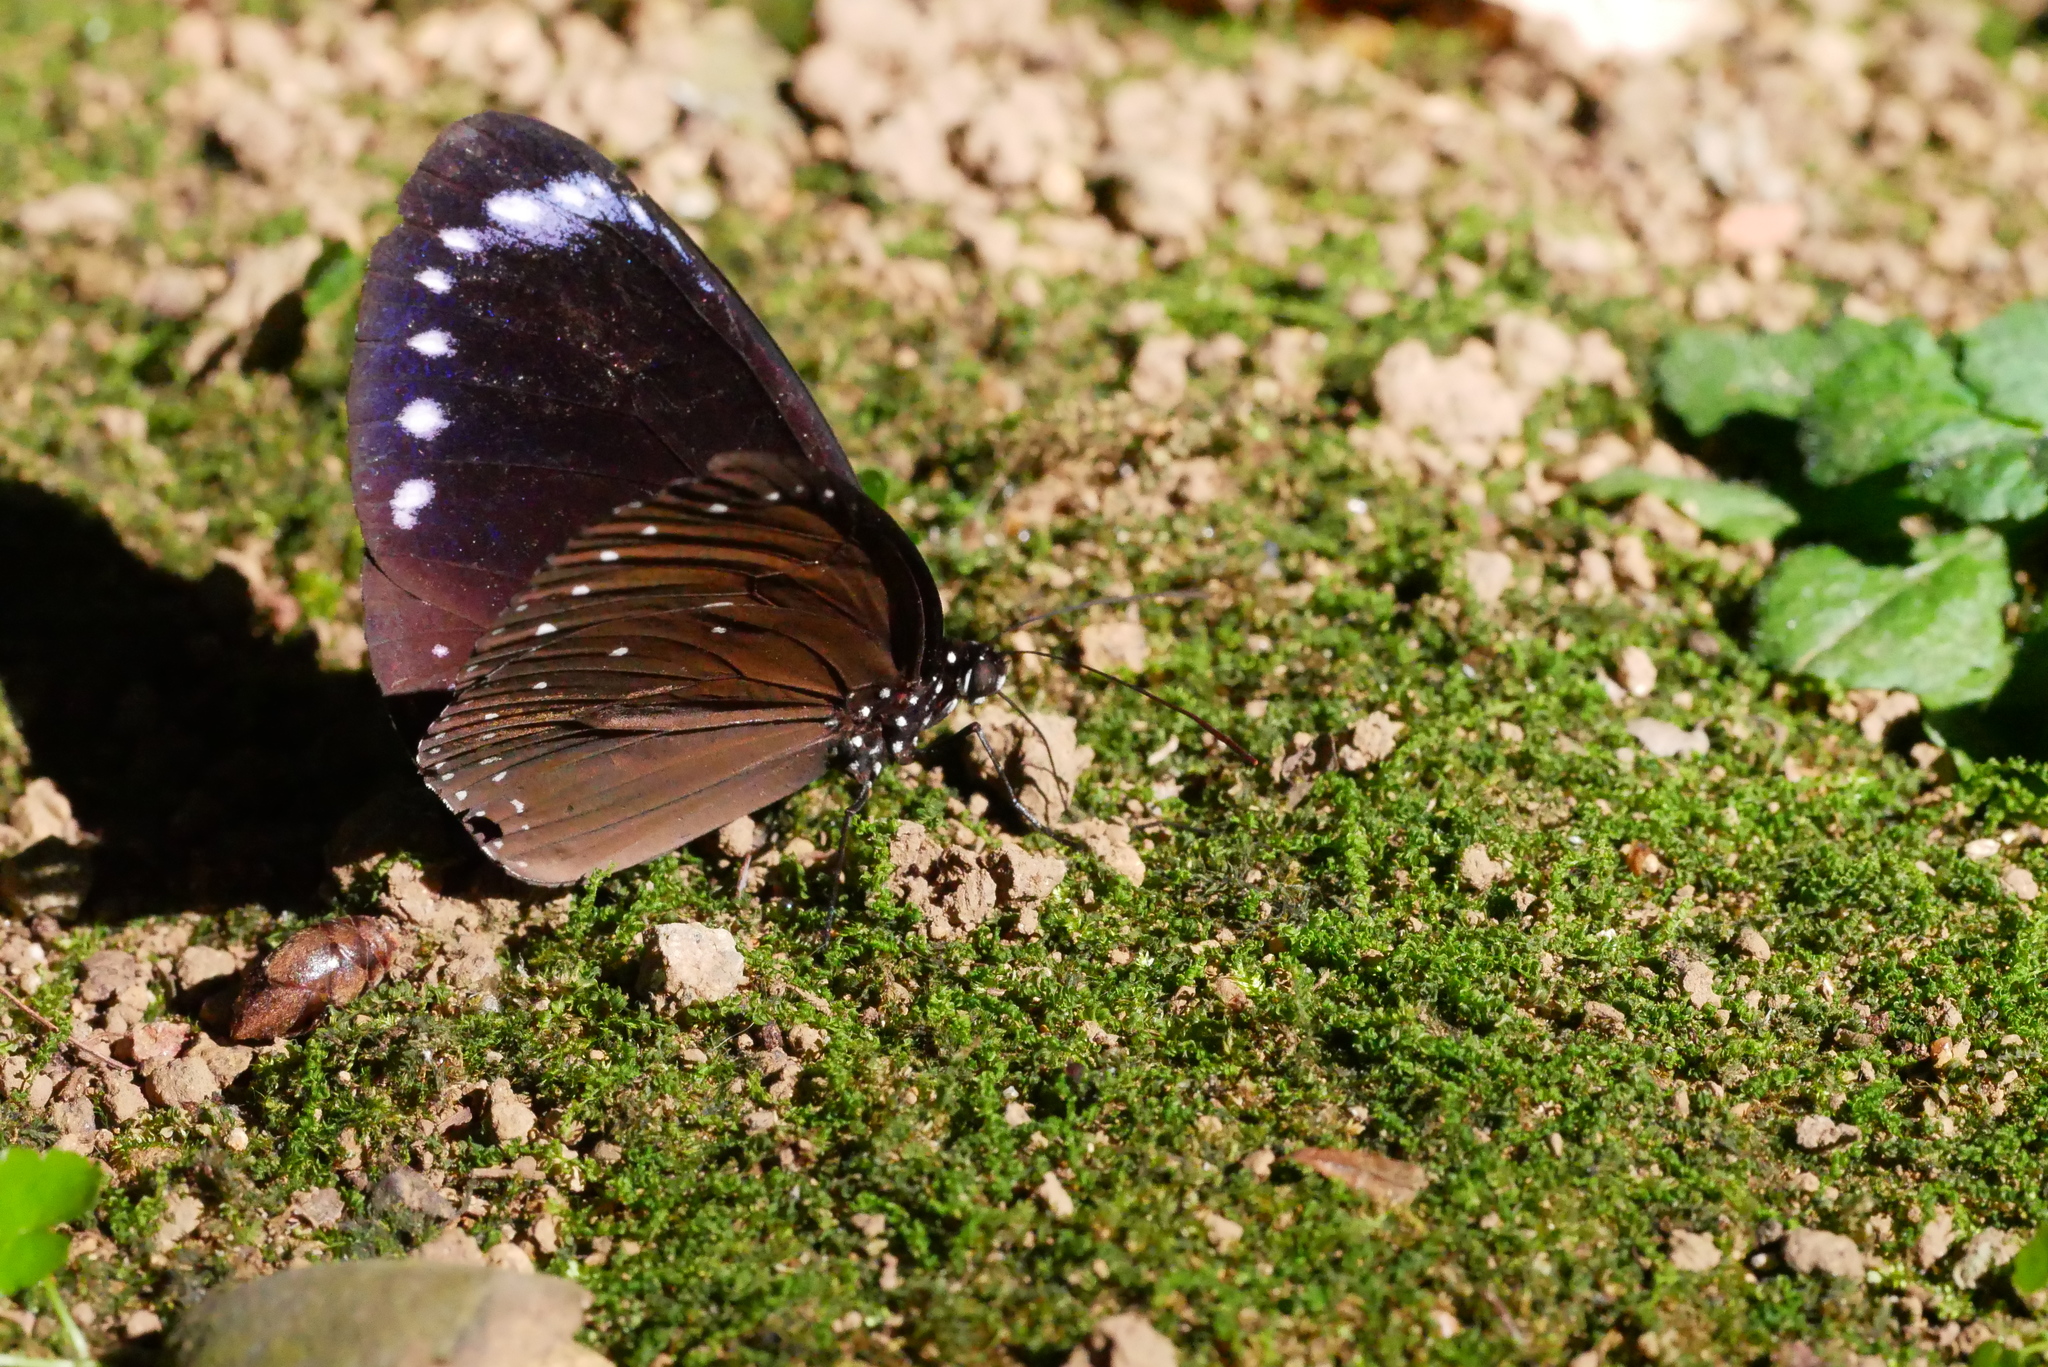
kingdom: Animalia
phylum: Arthropoda
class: Insecta
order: Lepidoptera
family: Nymphalidae
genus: Euploea
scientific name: Euploea tulliolus
